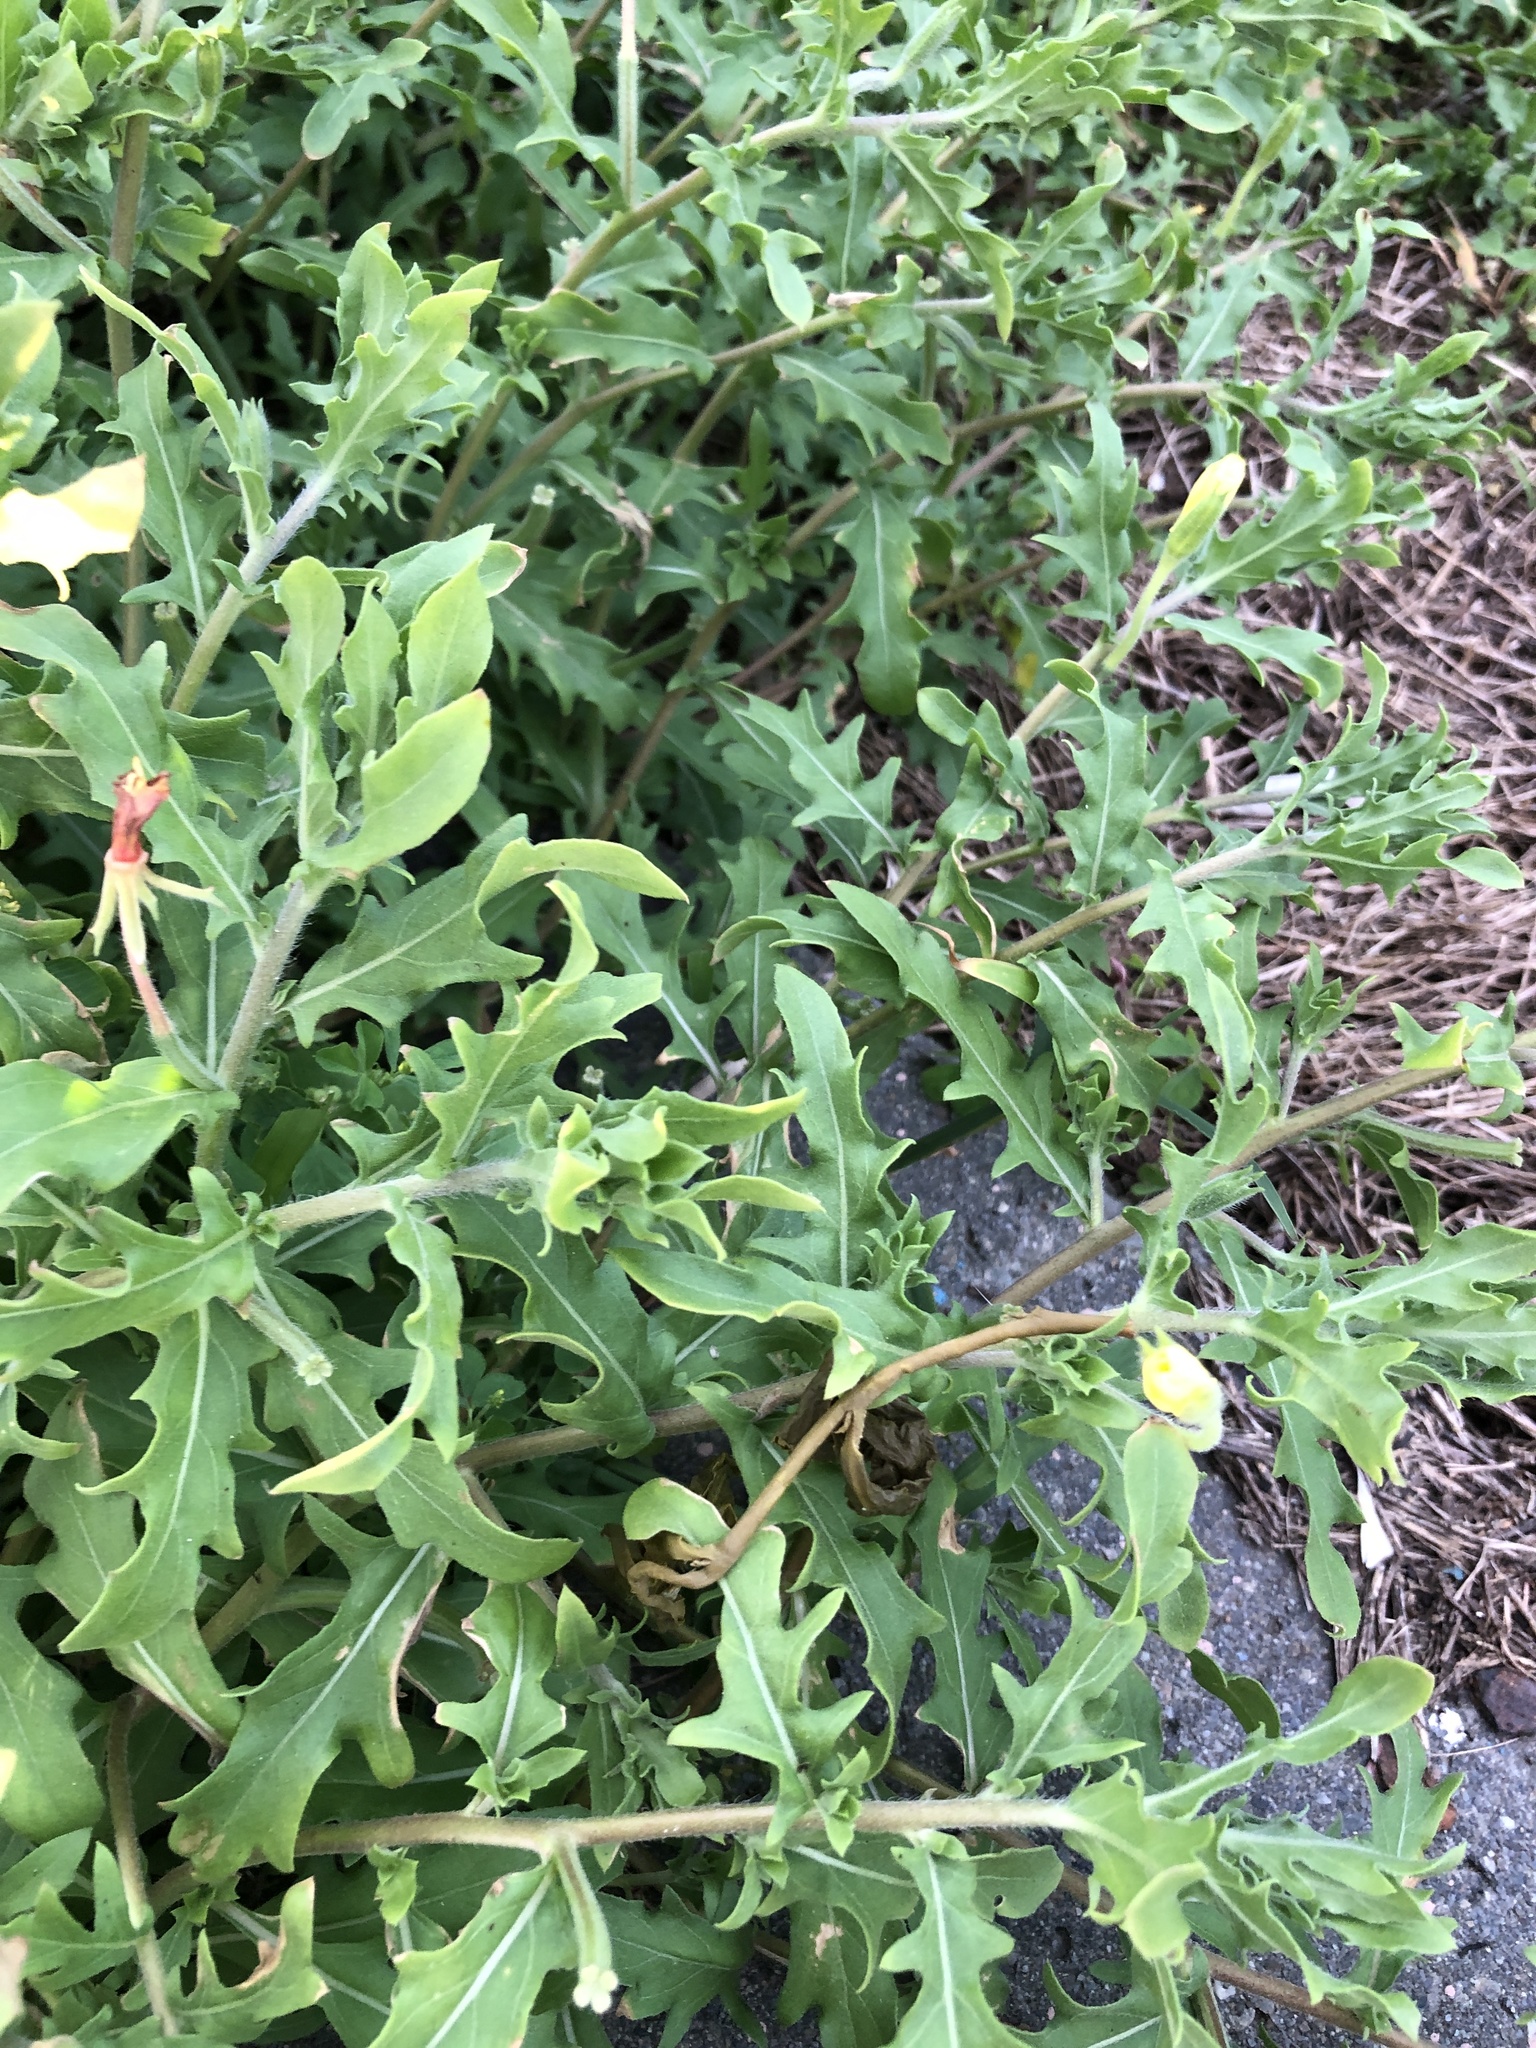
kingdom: Plantae
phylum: Tracheophyta
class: Magnoliopsida
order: Myrtales
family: Onagraceae
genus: Oenothera
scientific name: Oenothera laciniata
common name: Cut-leaved evening-primrose
